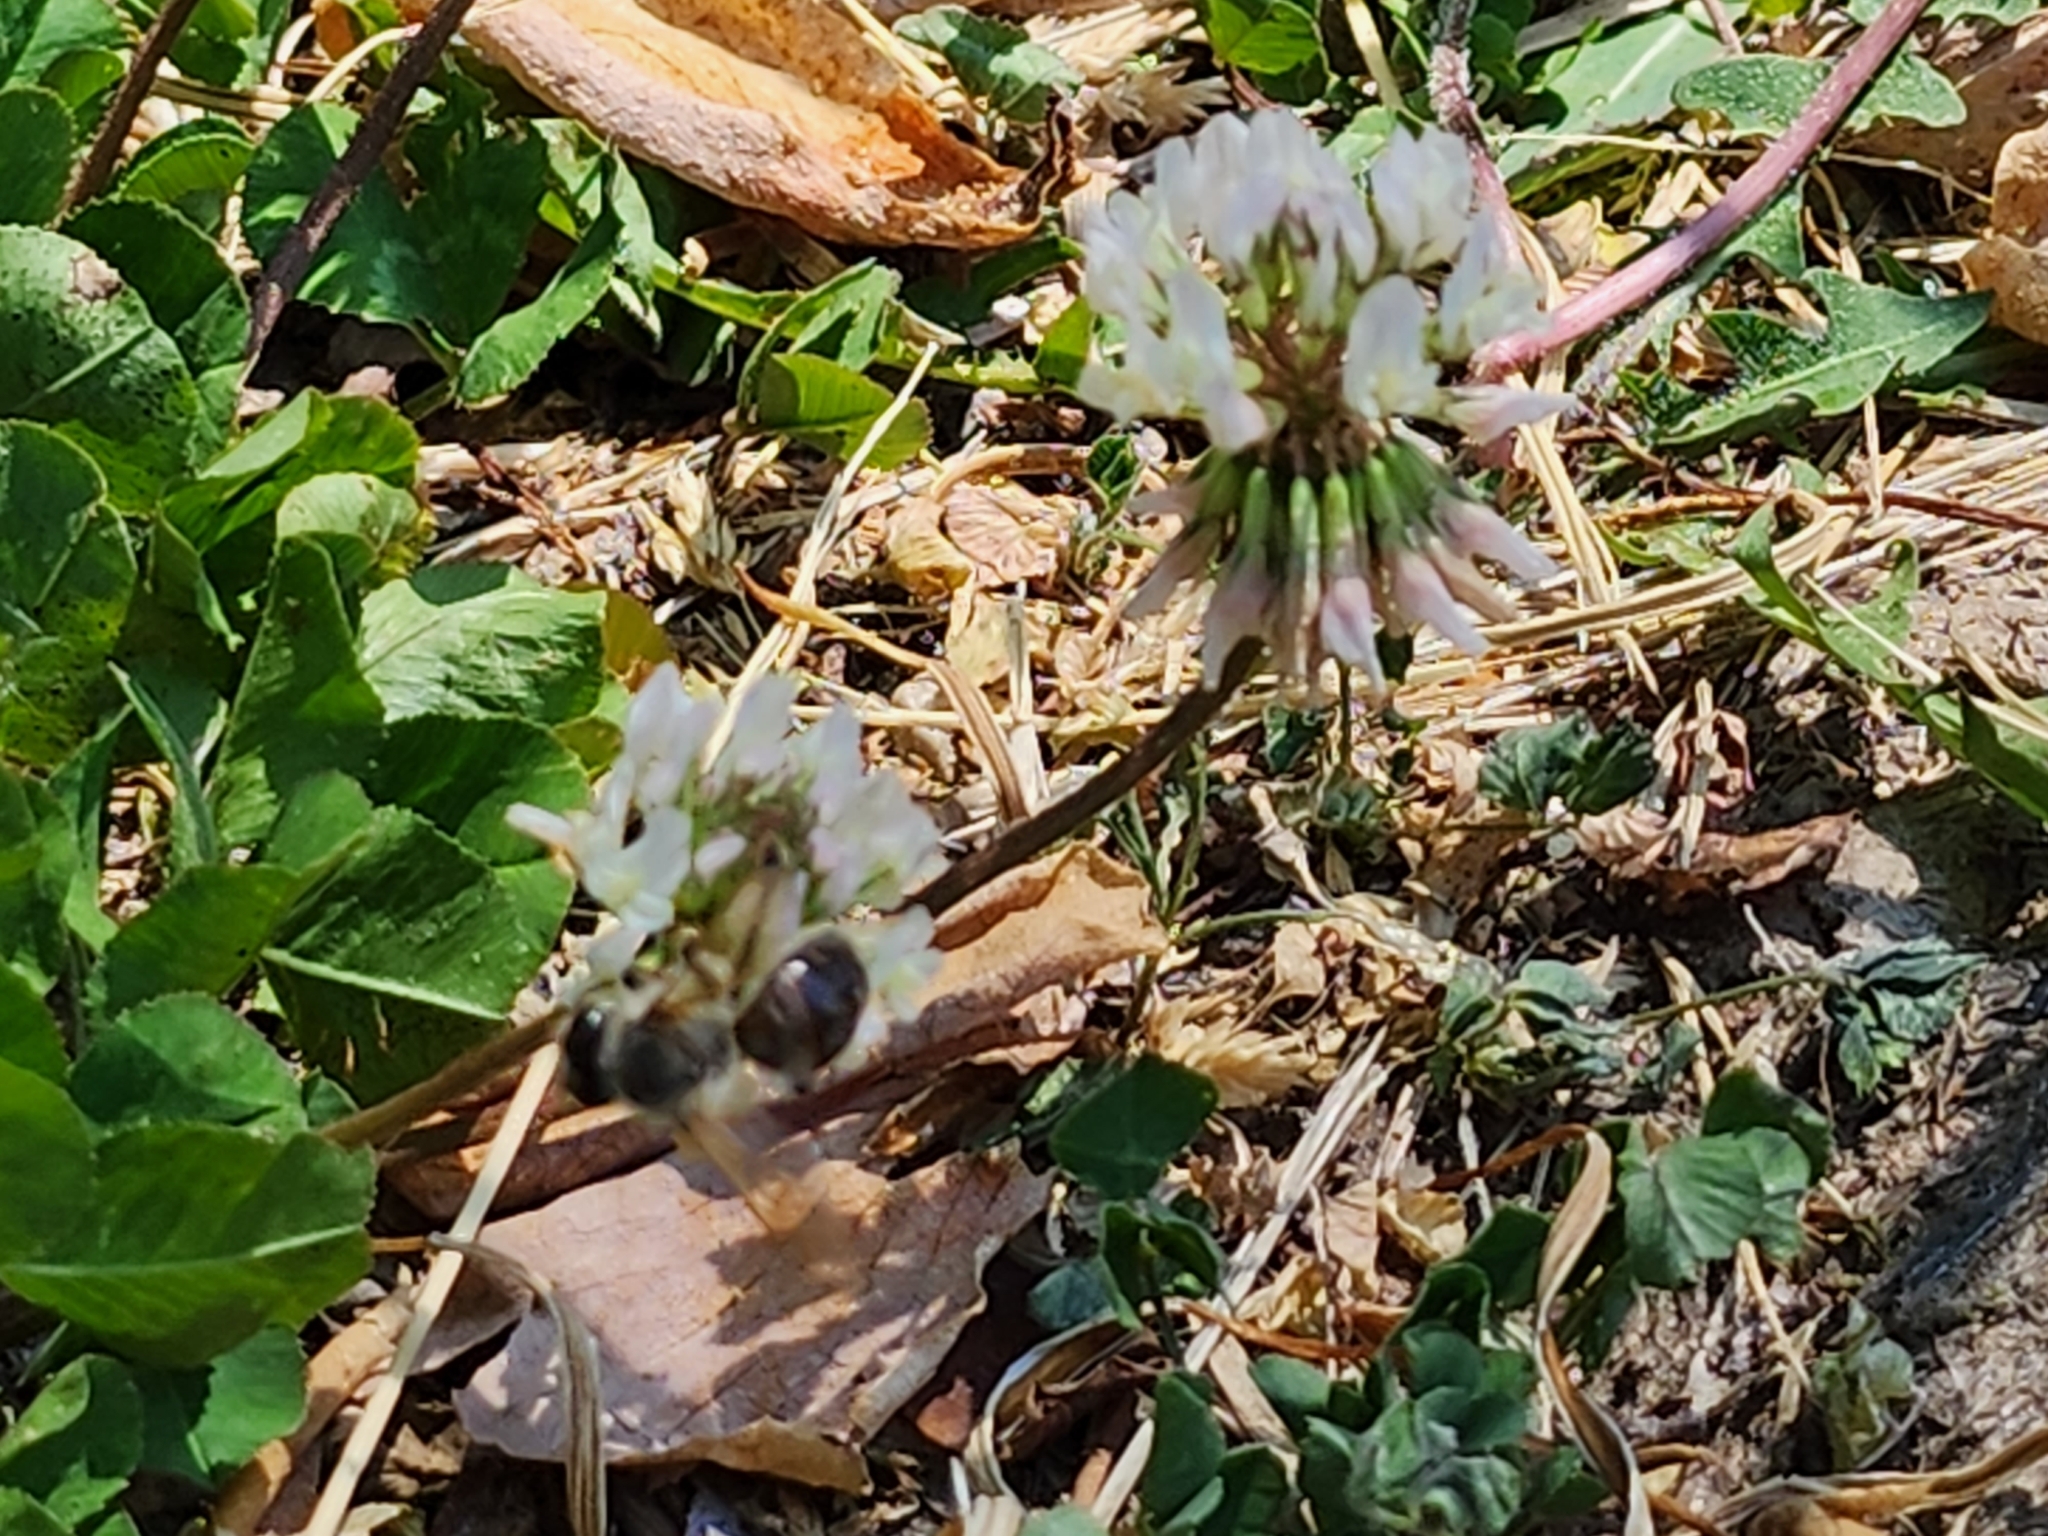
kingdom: Animalia
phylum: Arthropoda
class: Insecta
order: Hymenoptera
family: Apidae
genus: Apis
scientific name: Apis mellifera
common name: Honey bee
